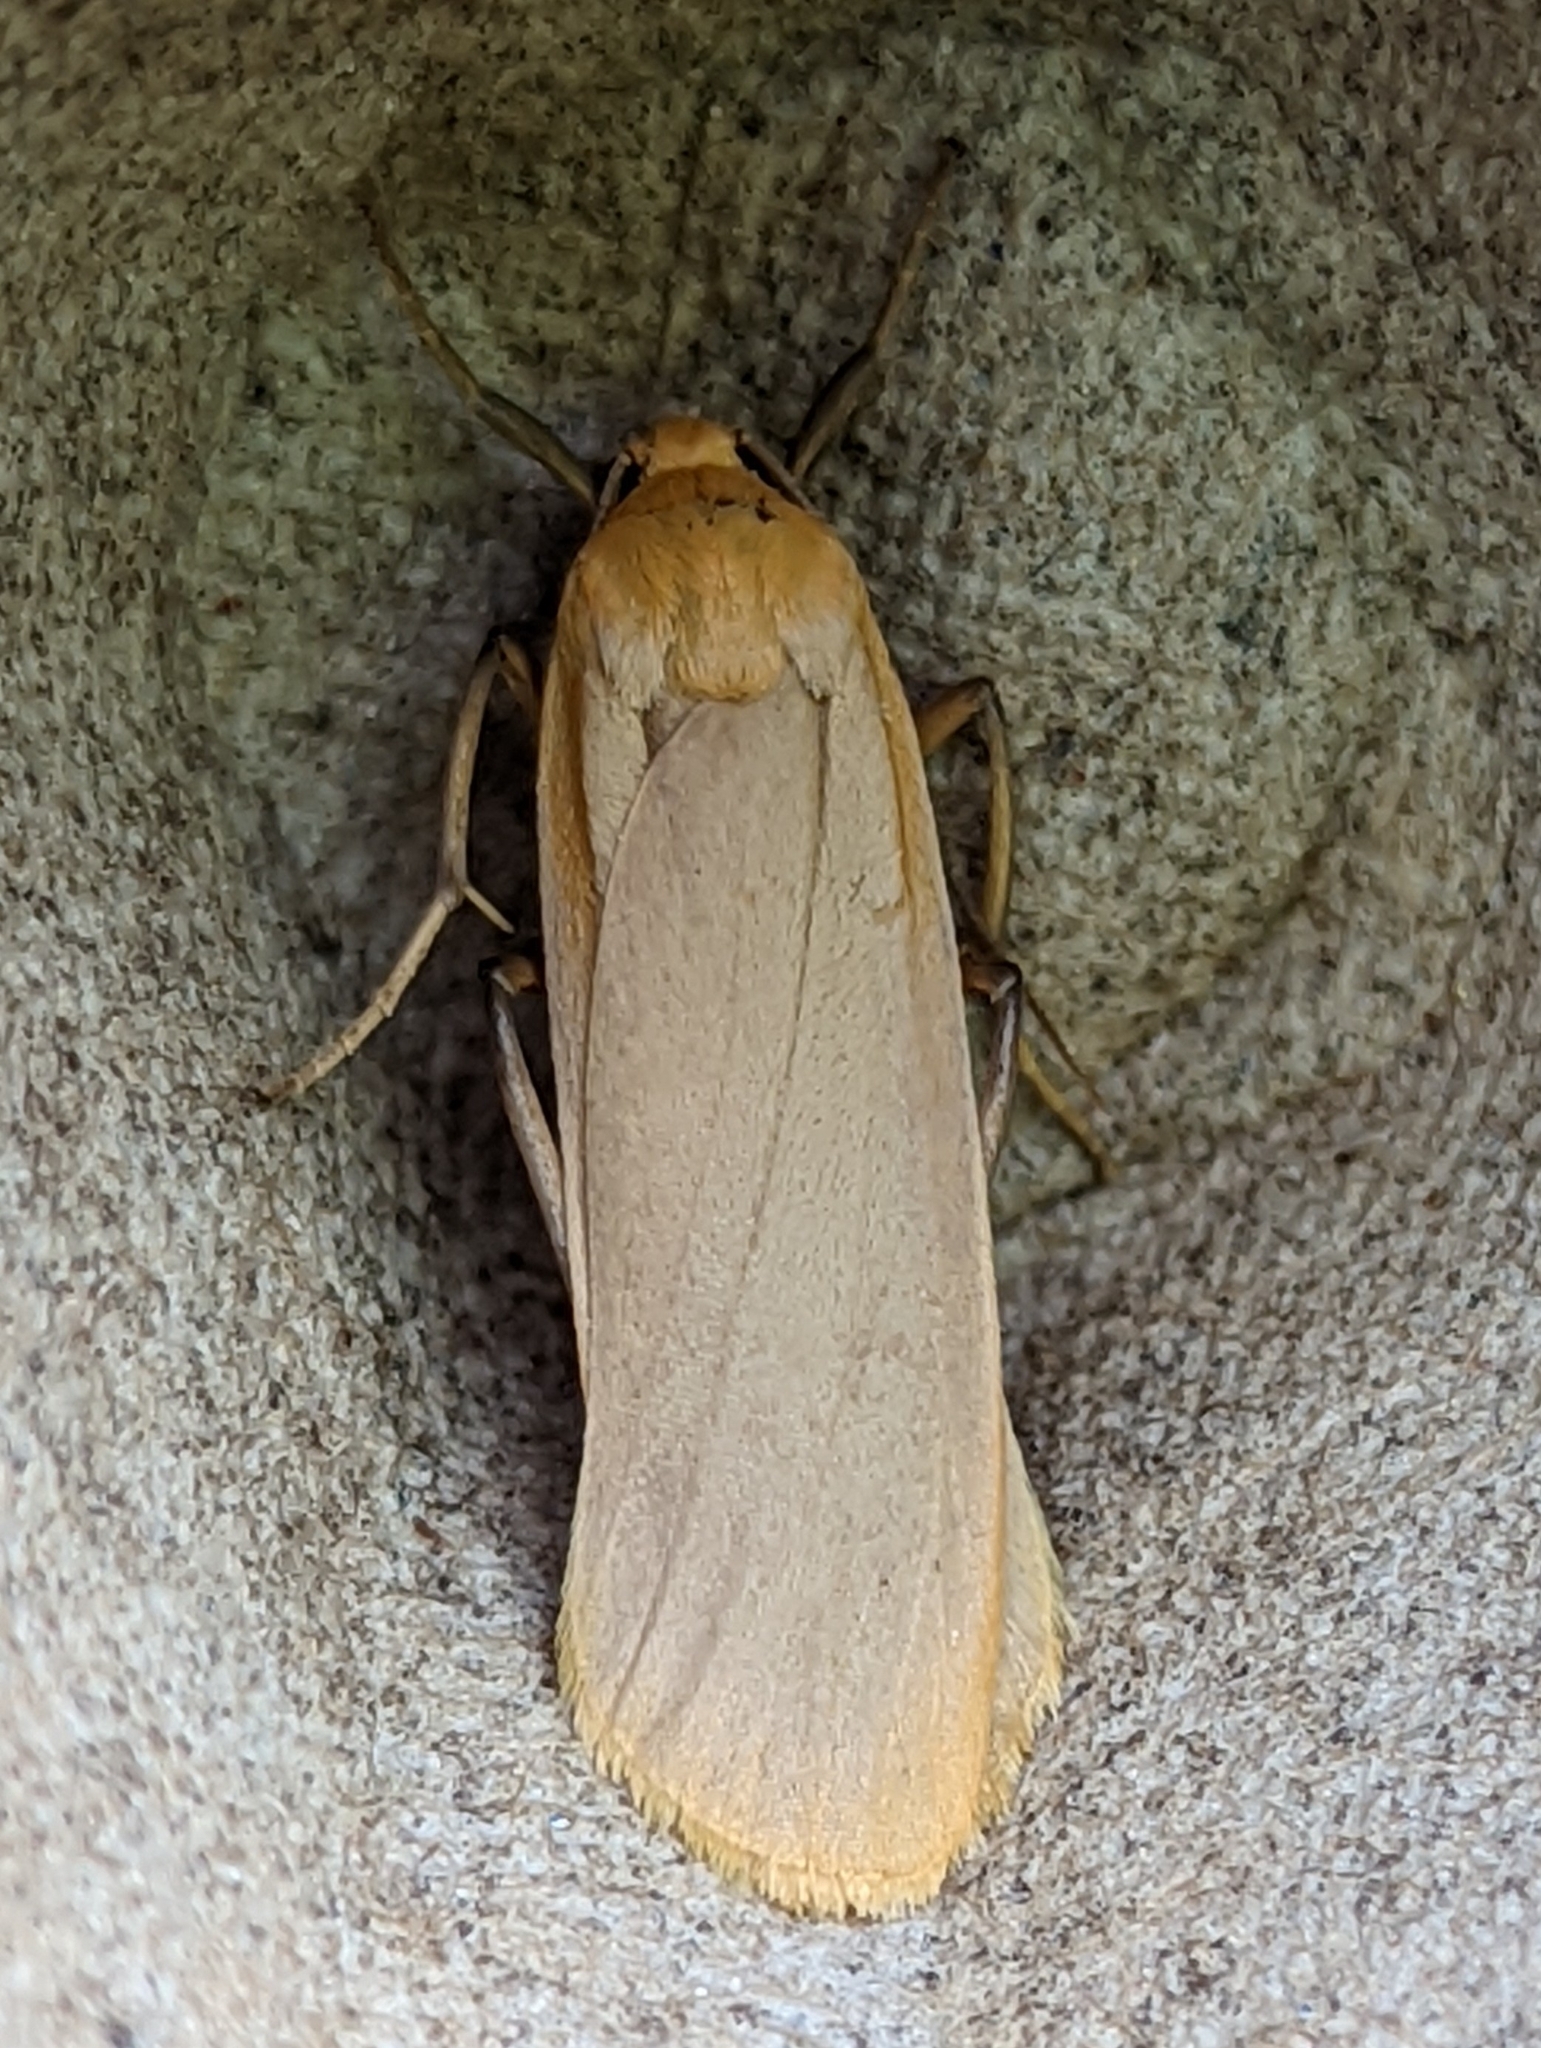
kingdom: Animalia
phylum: Arthropoda
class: Insecta
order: Lepidoptera
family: Erebidae
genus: Katha
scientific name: Katha depressa
